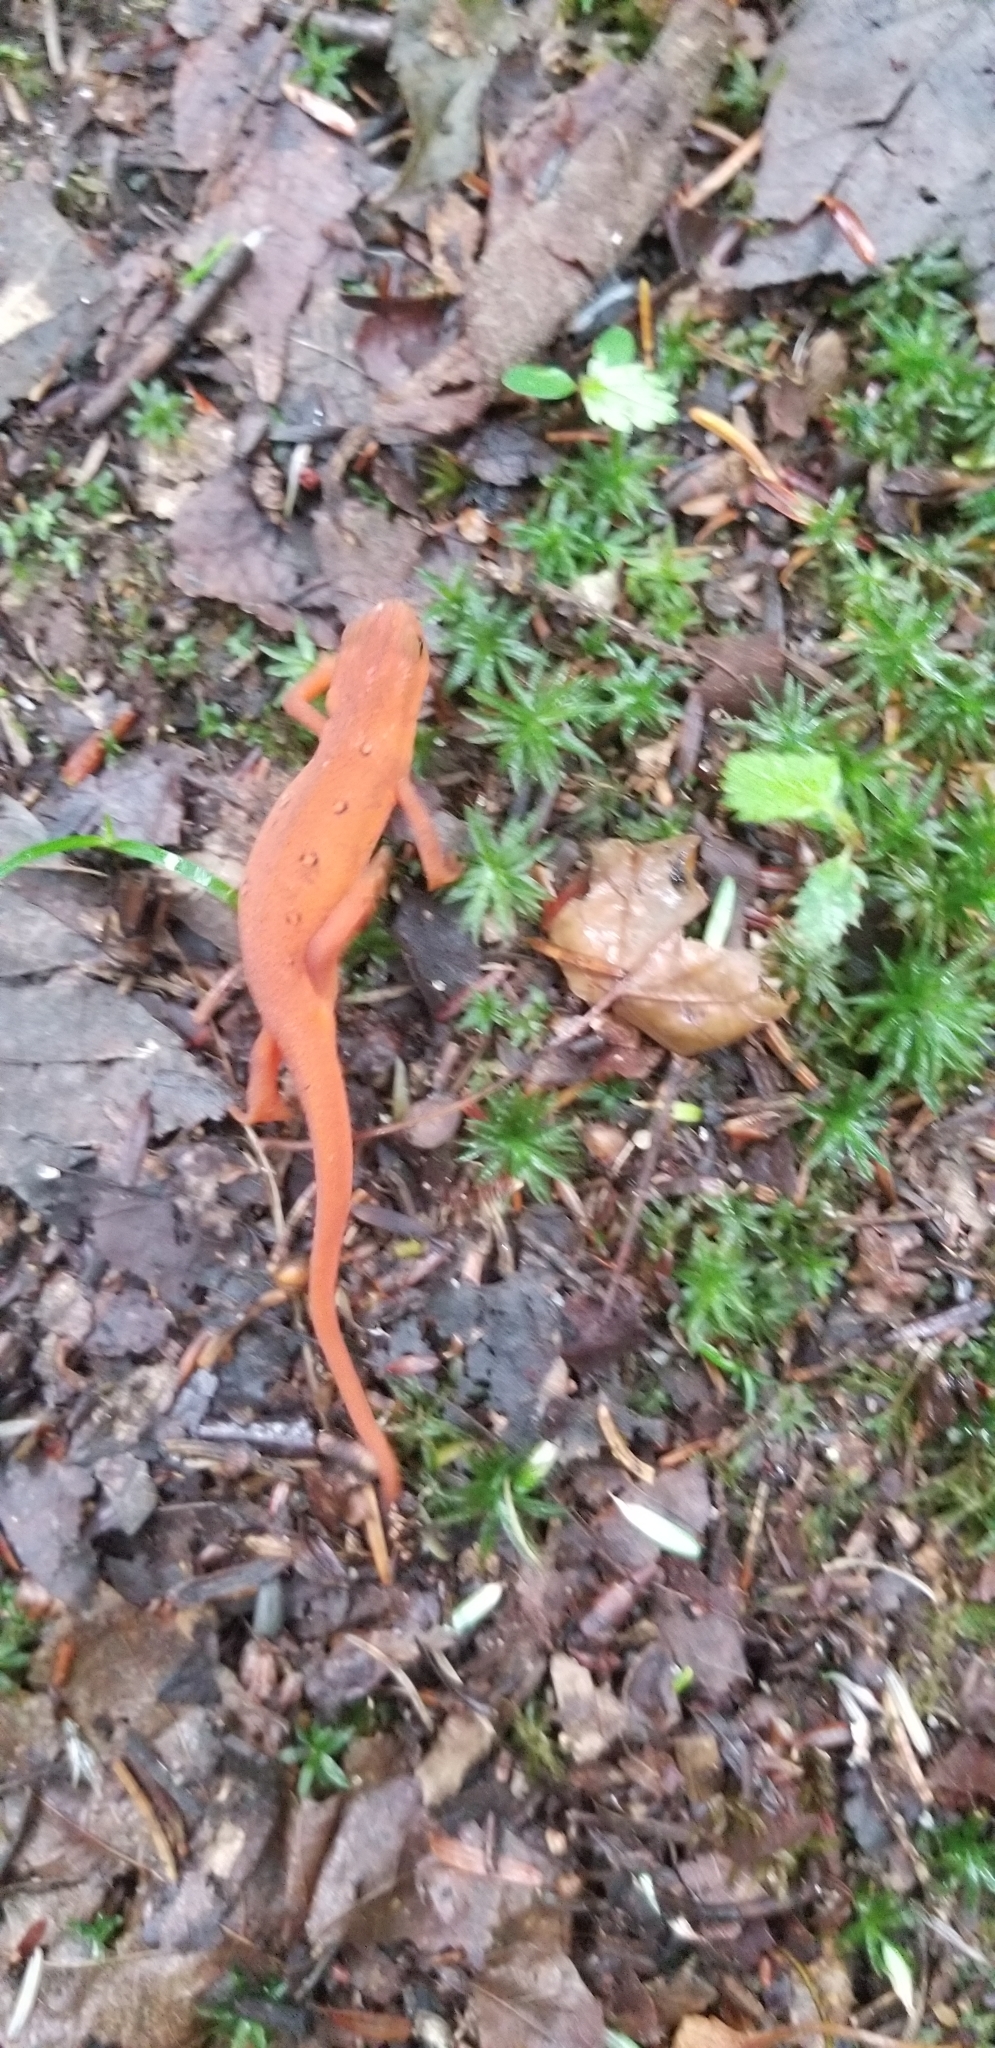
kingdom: Animalia
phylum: Chordata
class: Amphibia
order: Caudata
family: Salamandridae
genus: Notophthalmus
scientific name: Notophthalmus viridescens
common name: Eastern newt
